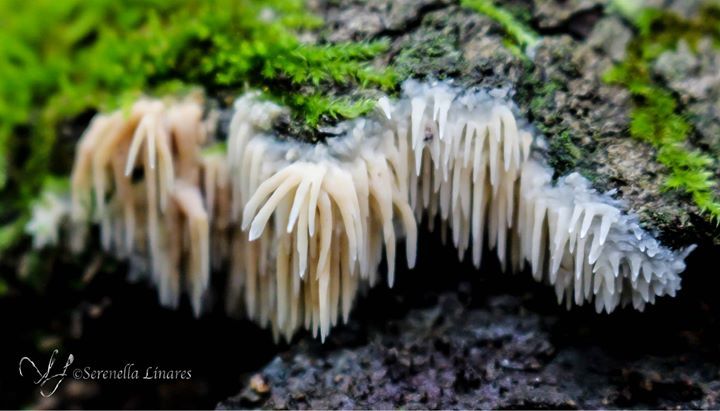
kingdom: Fungi
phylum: Basidiomycota
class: Agaricomycetes
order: Agaricales
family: Radulomycetaceae
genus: Radulomyces
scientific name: Radulomyces copelandii
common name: Asian beauty
